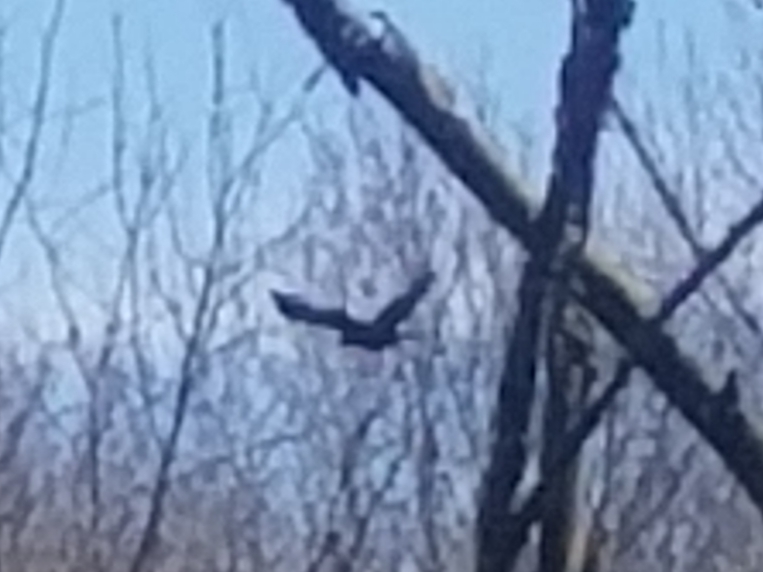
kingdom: Animalia
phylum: Chordata
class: Aves
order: Passeriformes
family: Corvidae
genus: Corvus
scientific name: Corvus brachyrhynchos
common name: American crow
